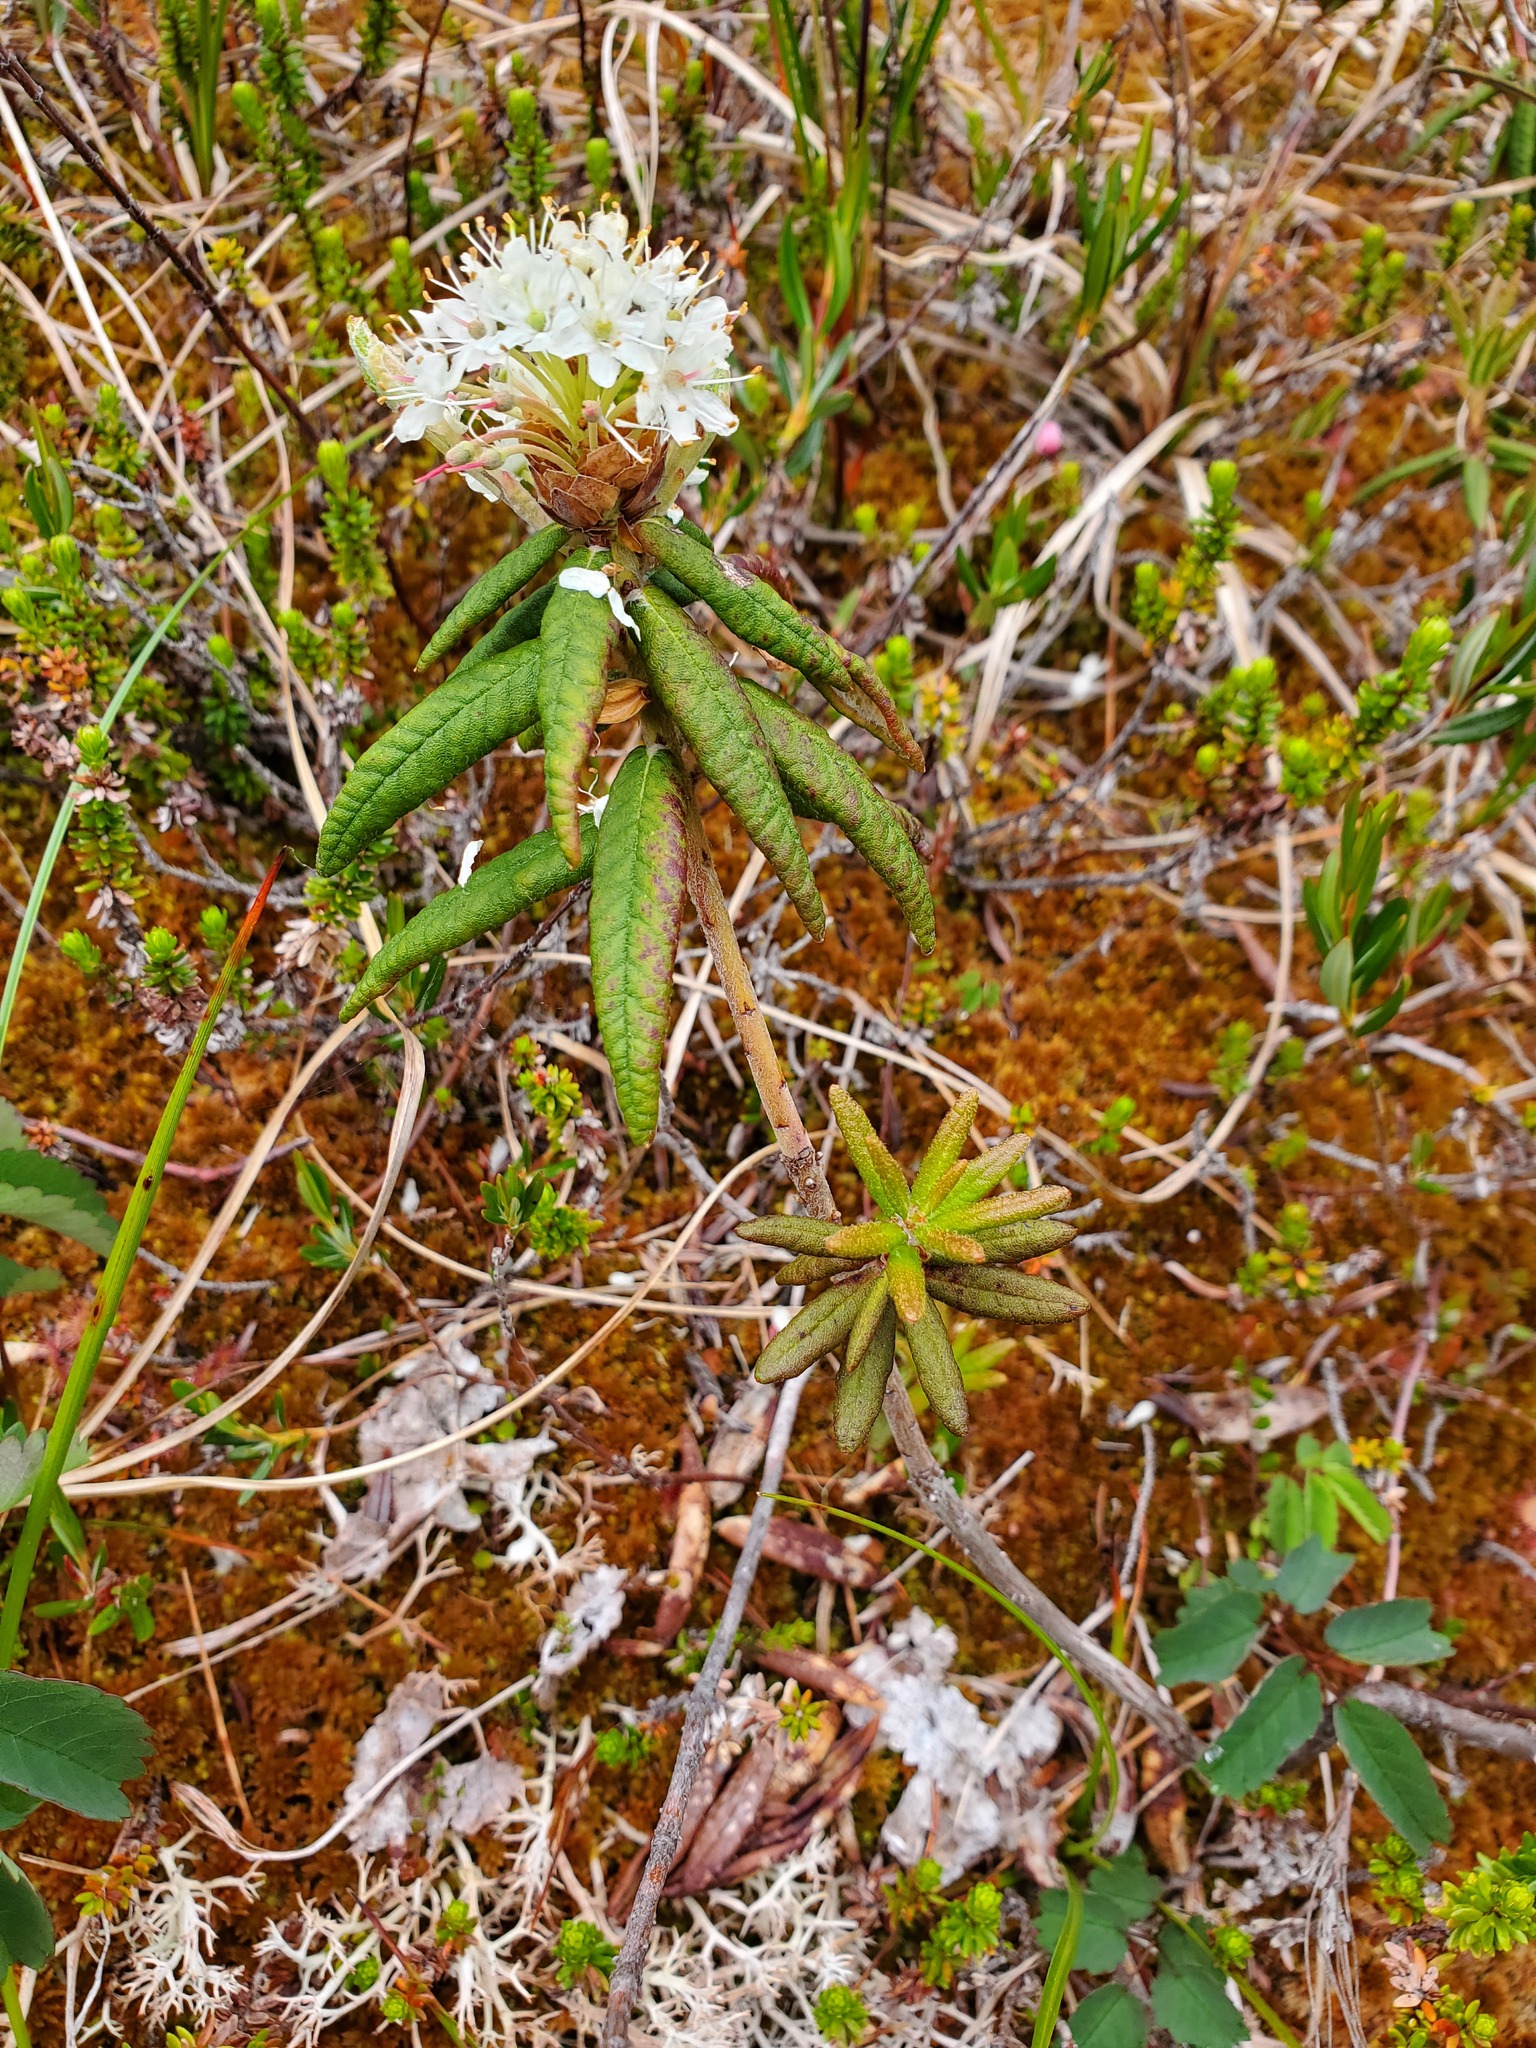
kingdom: Plantae
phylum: Tracheophyta
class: Magnoliopsida
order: Ericales
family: Ericaceae
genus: Rhododendron
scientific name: Rhododendron groenlandicum
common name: Bog labrador tea
